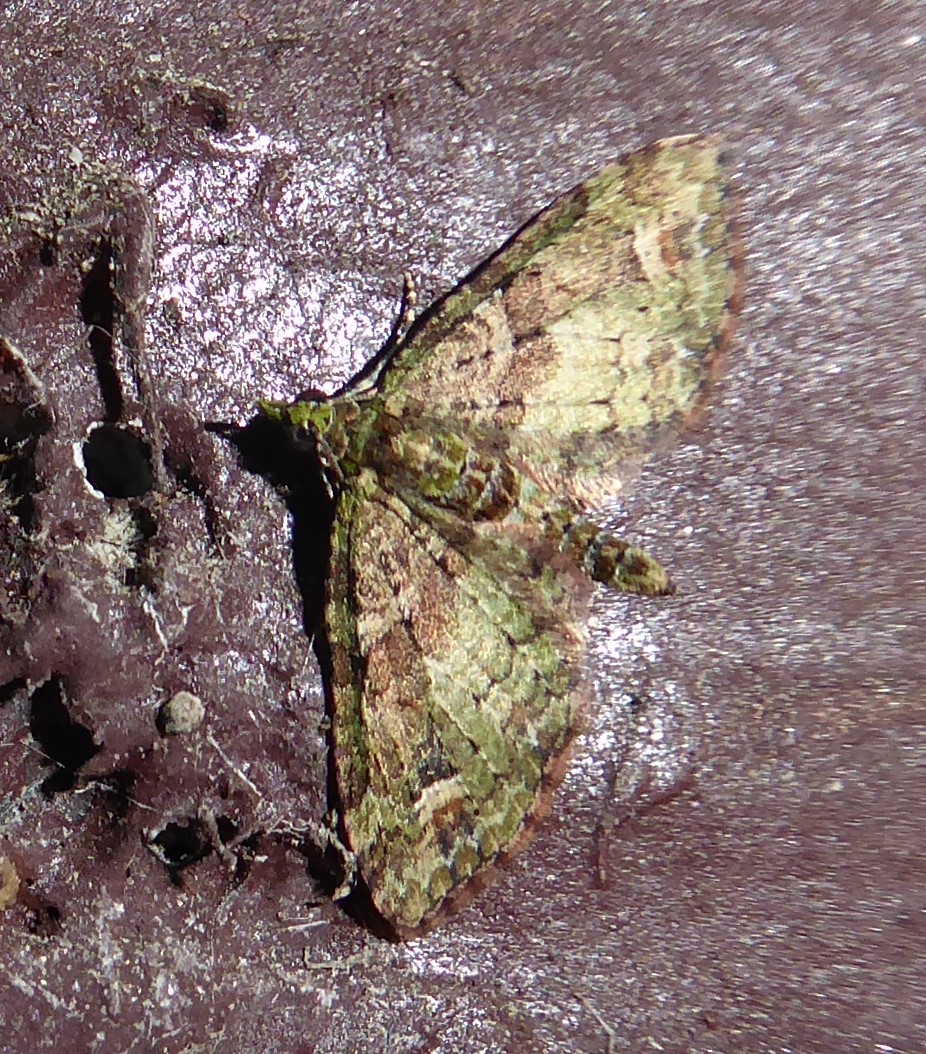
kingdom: Animalia
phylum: Arthropoda
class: Insecta
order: Lepidoptera
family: Geometridae
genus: Idaea
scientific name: Idaea mutanda
